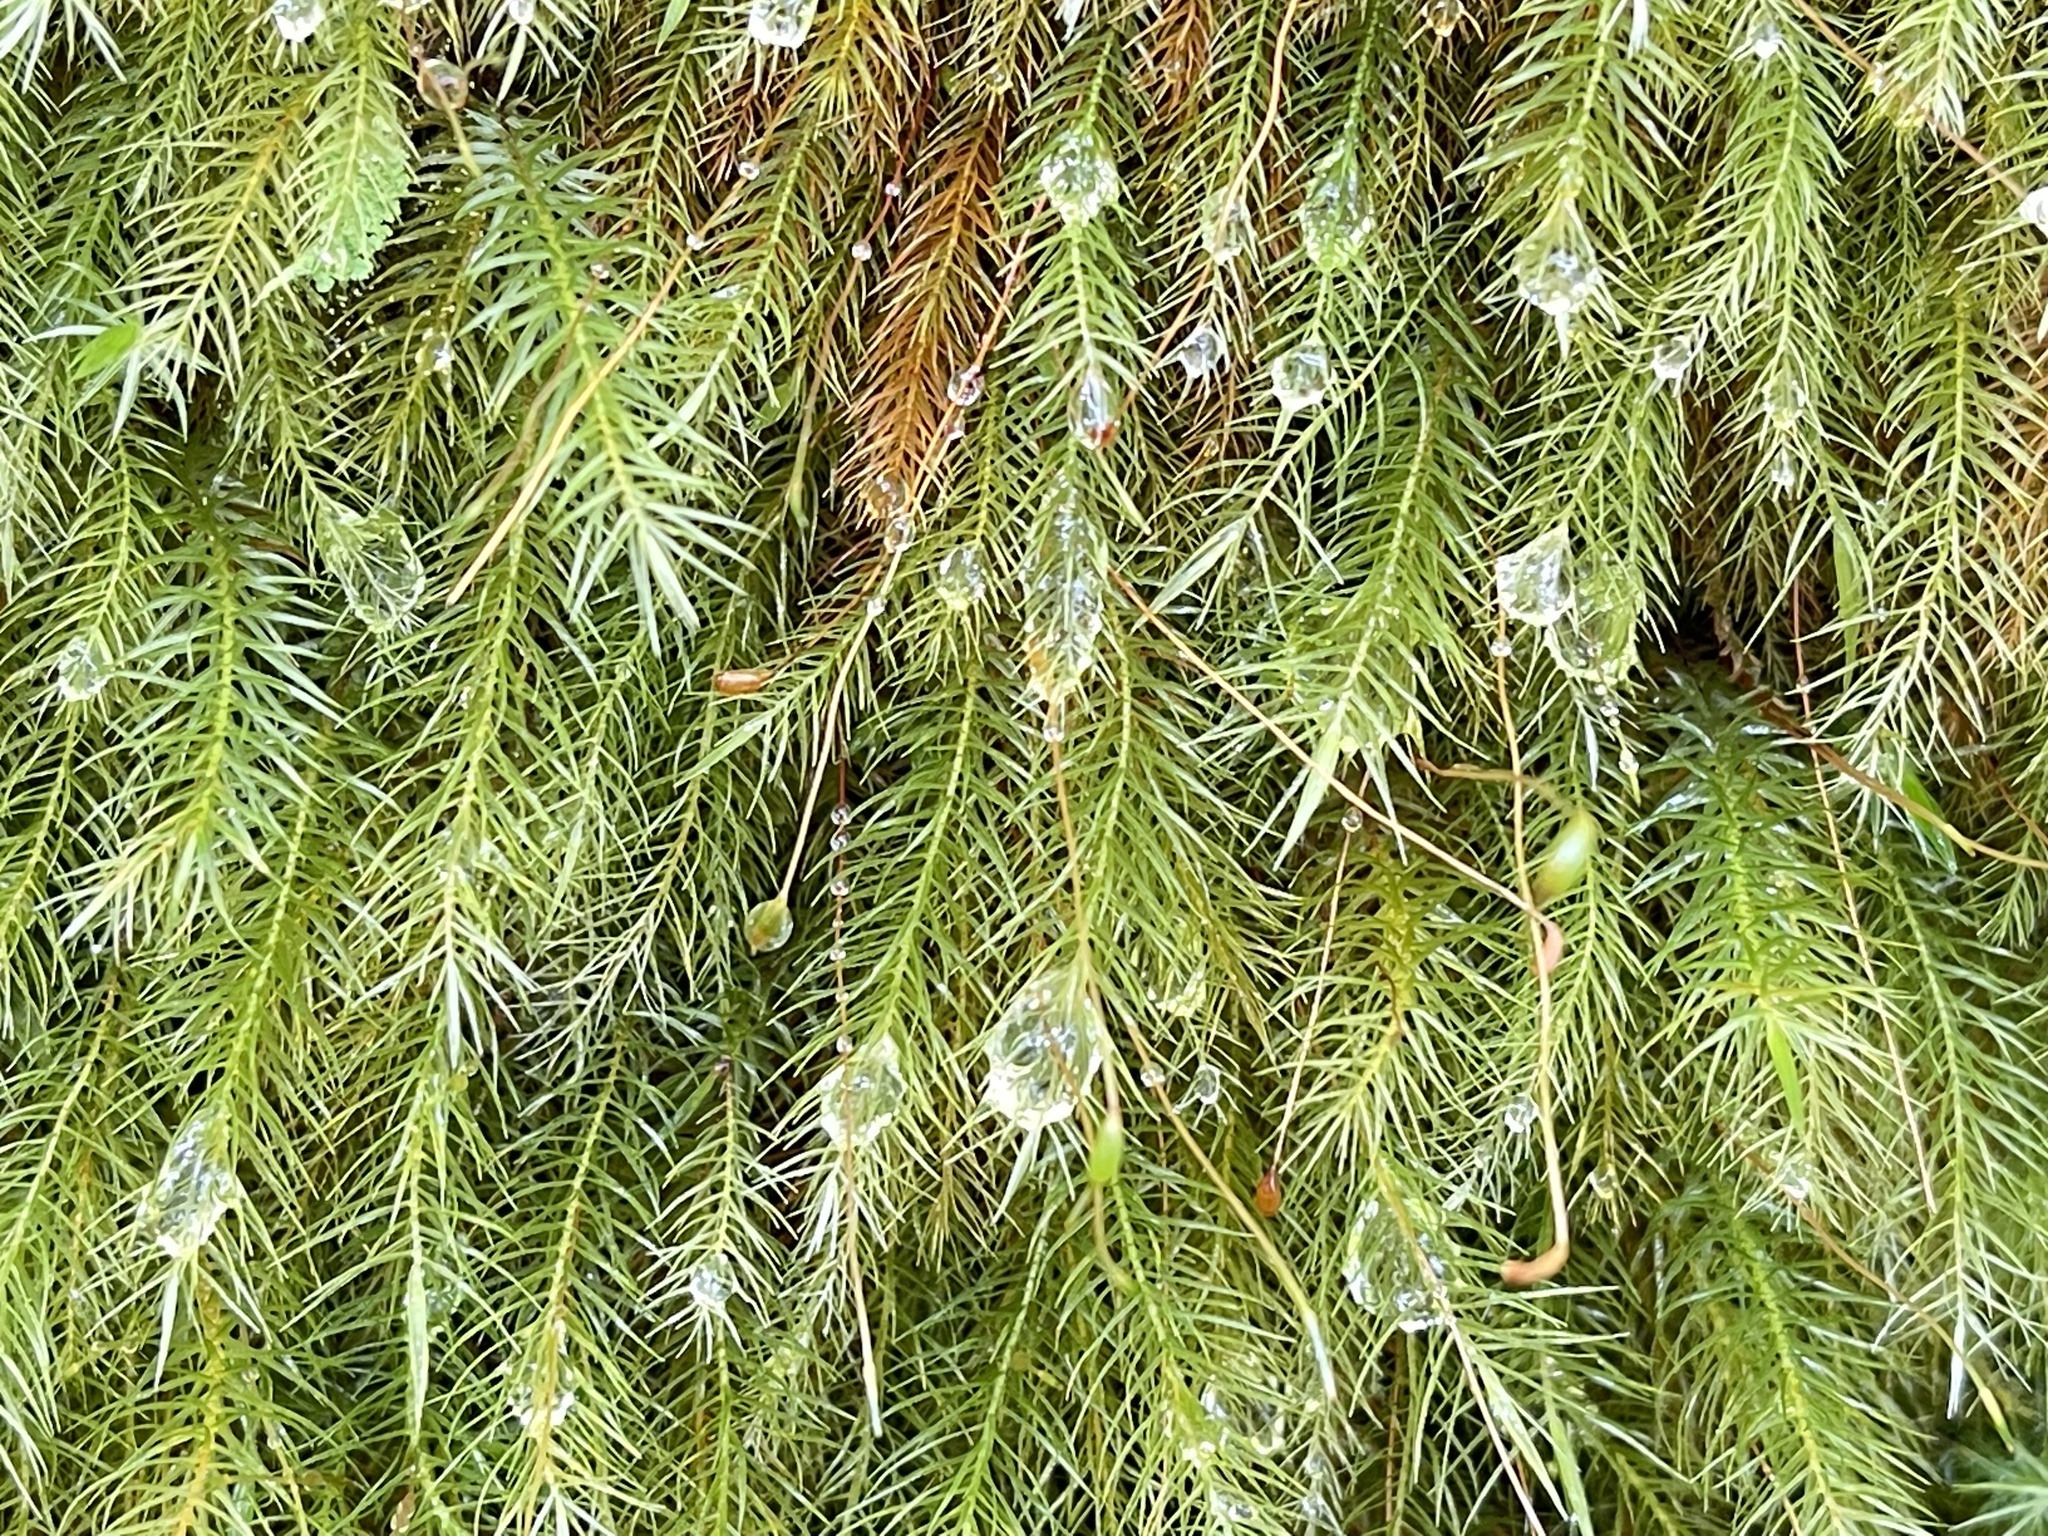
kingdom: Plantae
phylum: Bryophyta
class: Bryopsida
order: Rhizogoniales
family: Calomniaceae
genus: Pyrrhobryum
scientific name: Pyrrhobryum spiniforme
